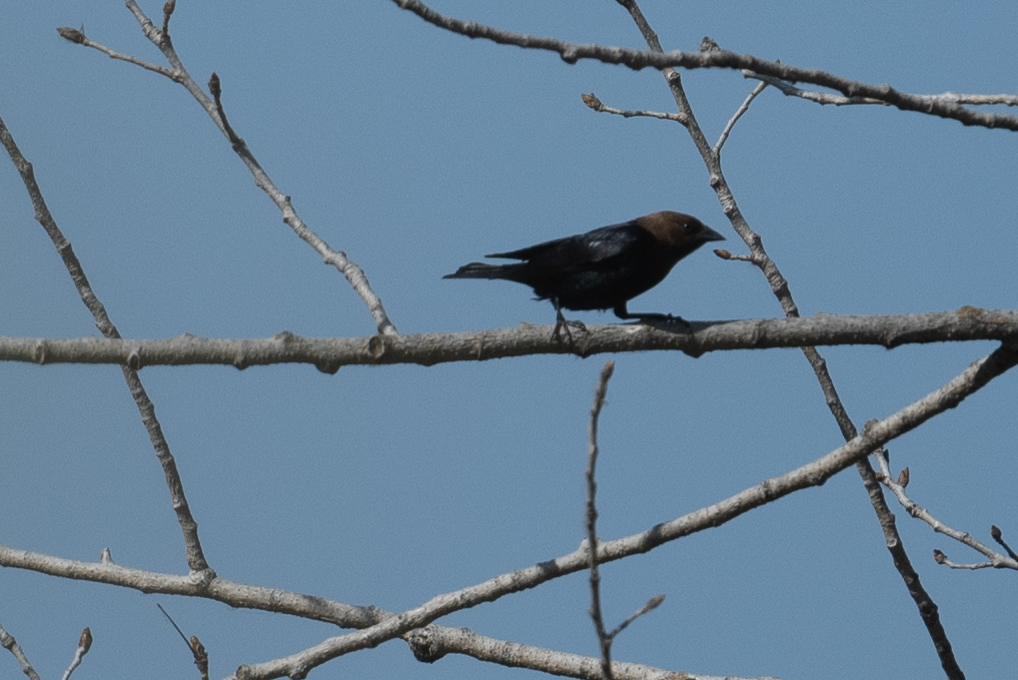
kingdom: Animalia
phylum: Chordata
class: Aves
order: Passeriformes
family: Icteridae
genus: Molothrus
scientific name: Molothrus ater
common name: Brown-headed cowbird
